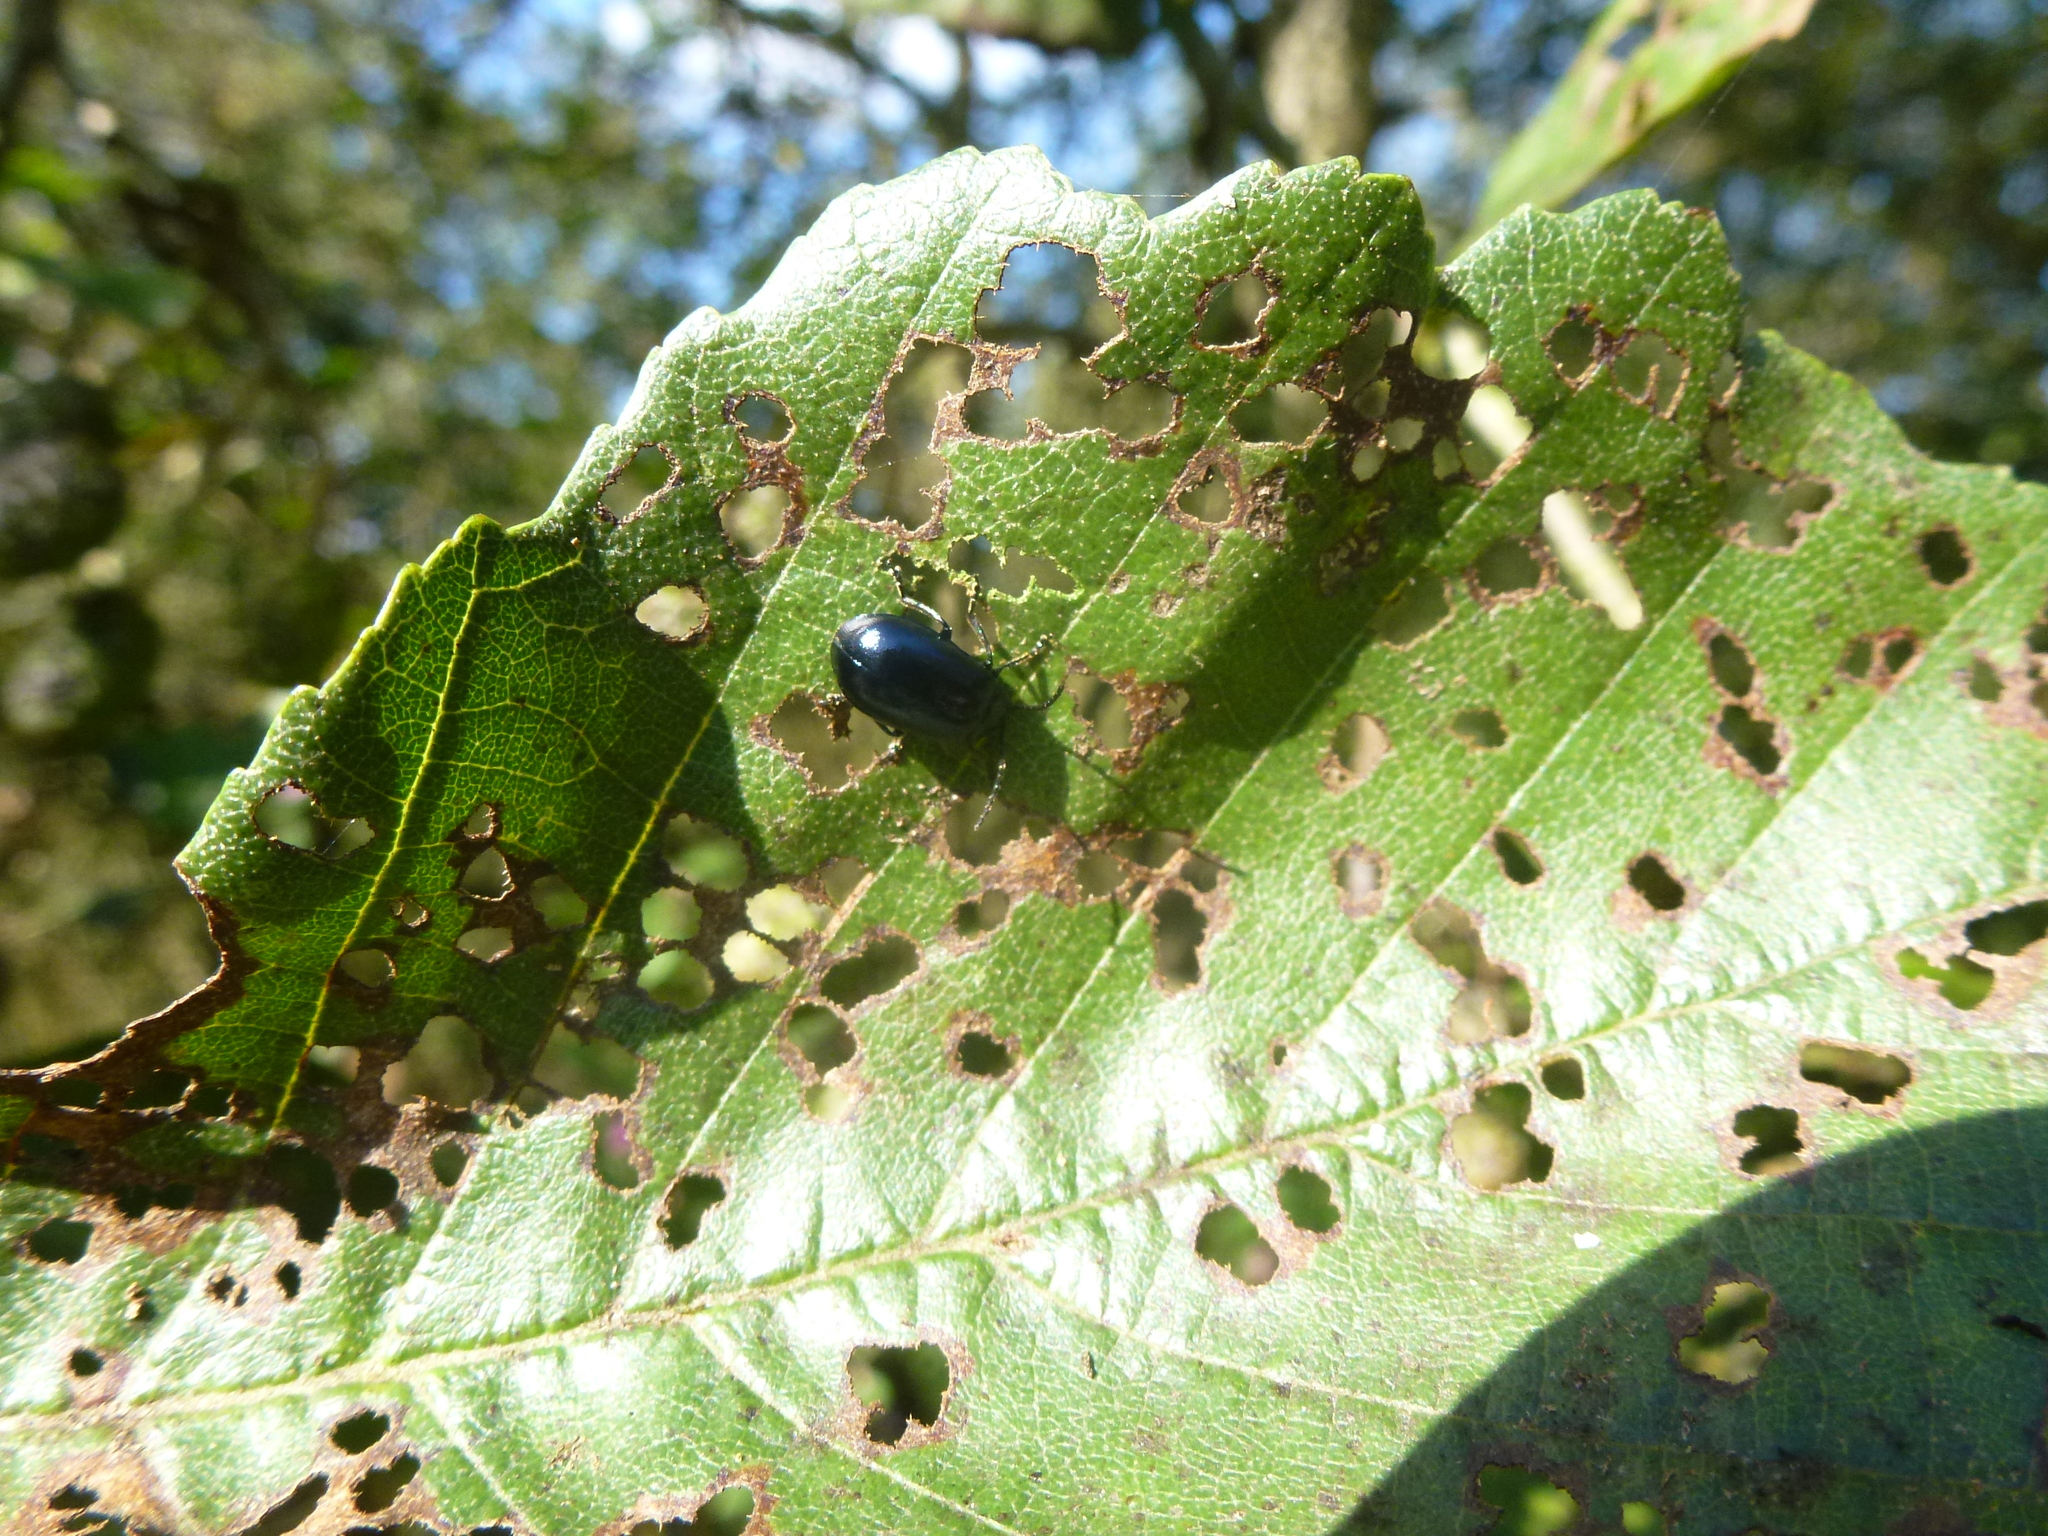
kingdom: Animalia
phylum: Arthropoda
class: Insecta
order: Coleoptera
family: Chrysomelidae
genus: Agelastica
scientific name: Agelastica alni
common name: Alder leaf beetle
